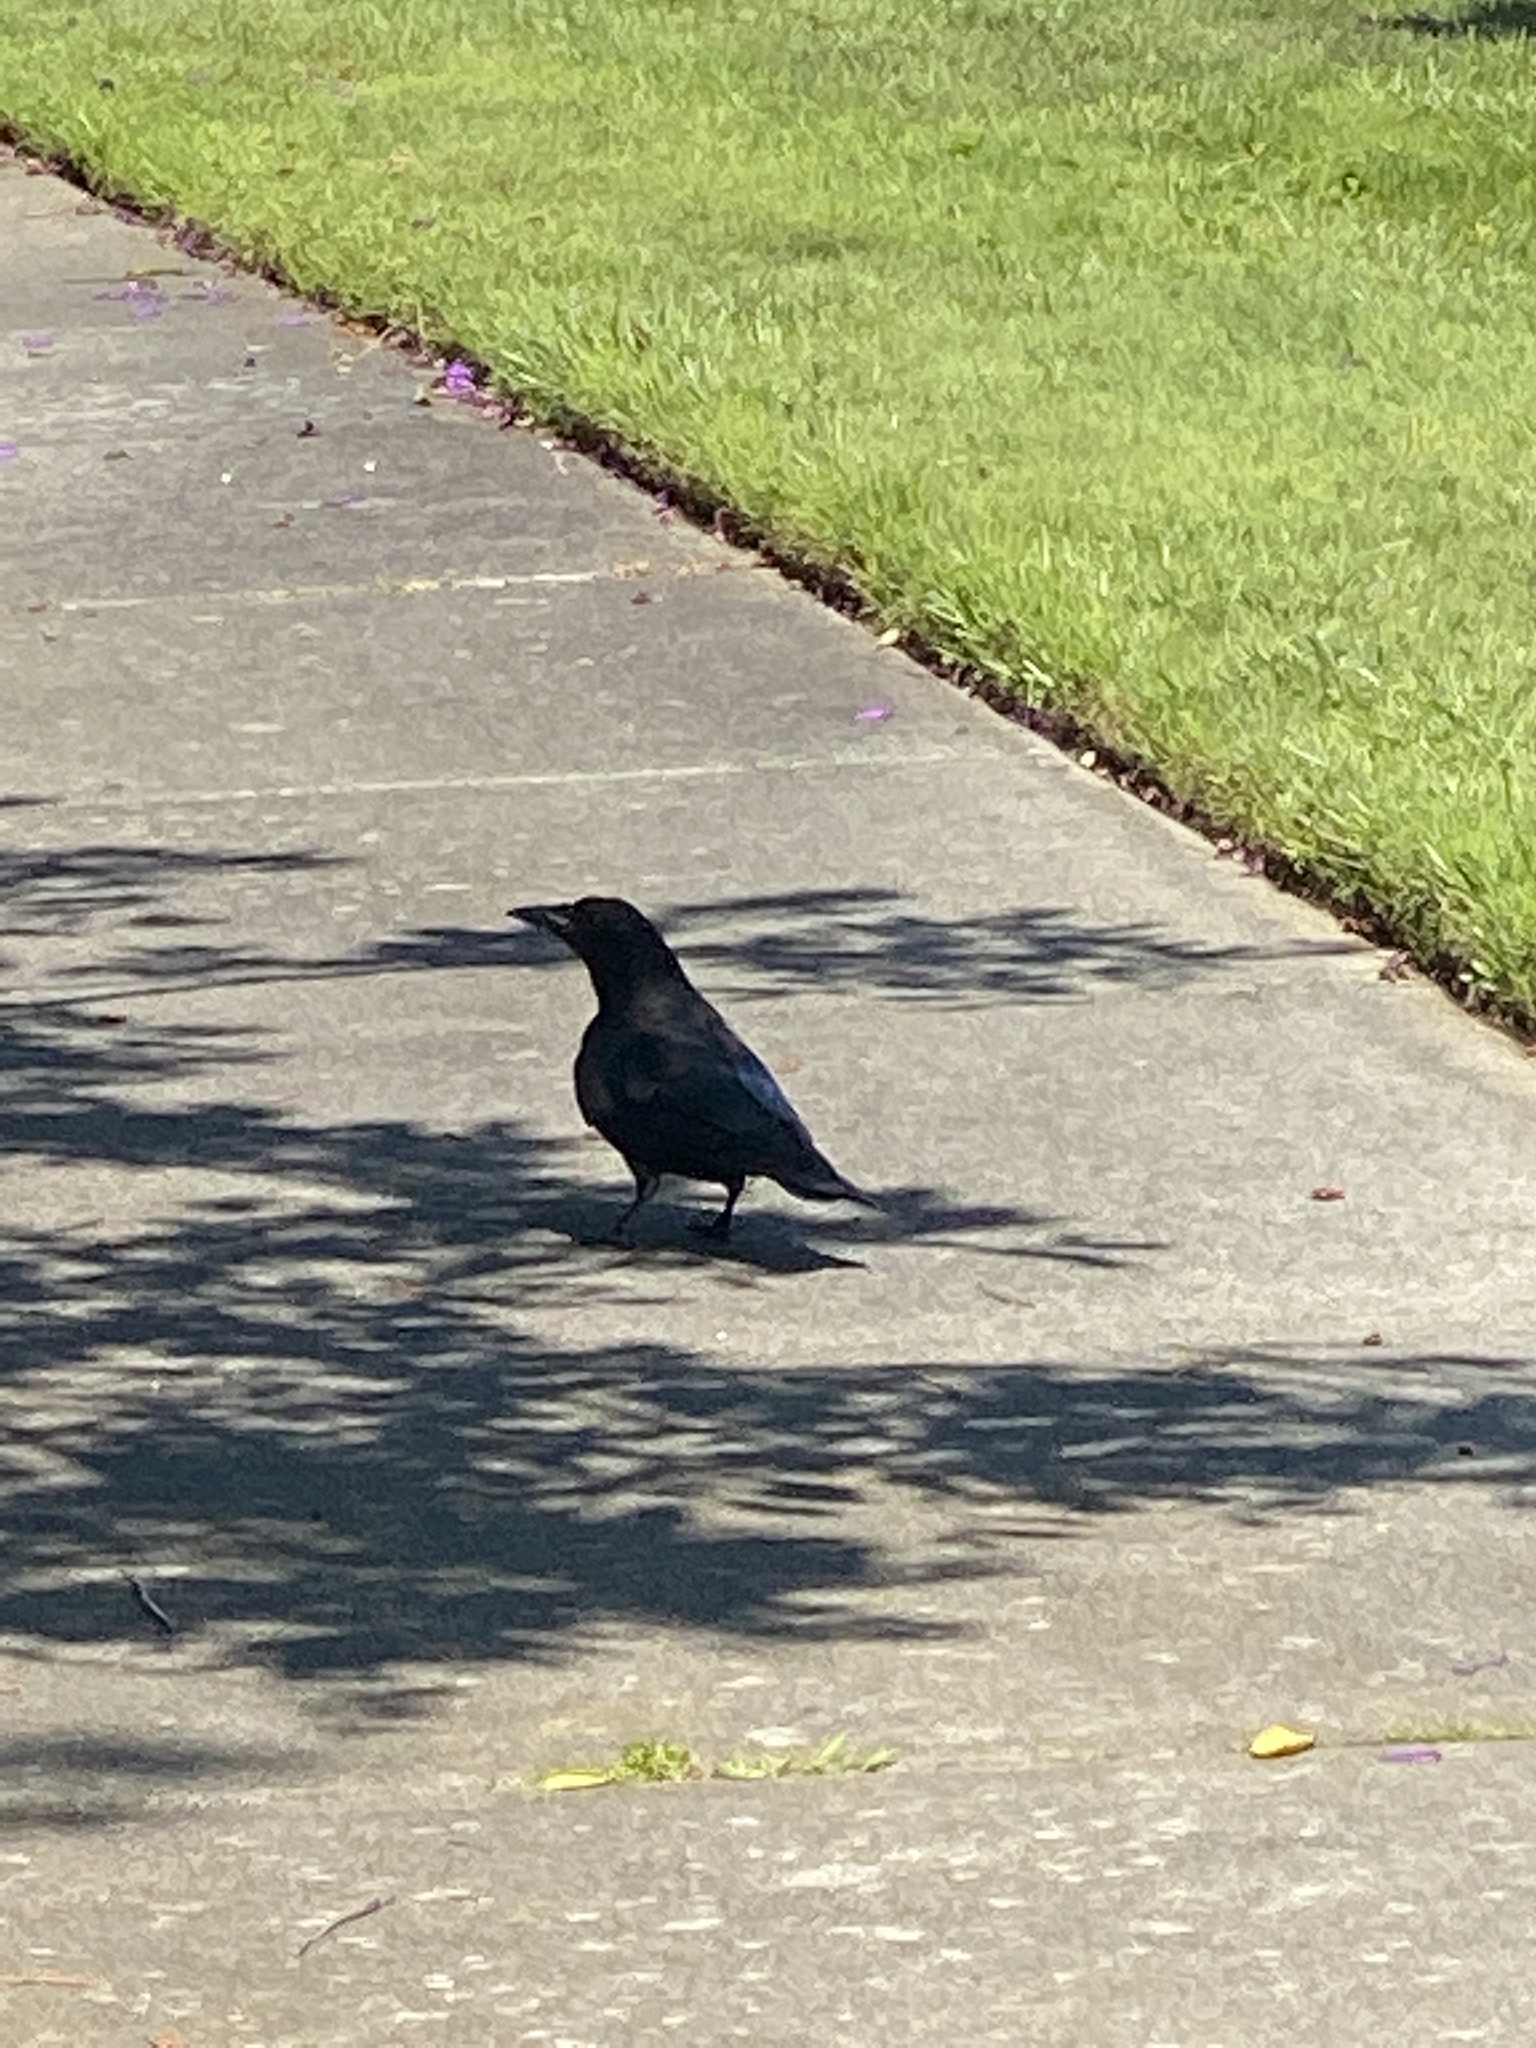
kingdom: Animalia
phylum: Chordata
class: Aves
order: Passeriformes
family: Corvidae
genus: Corvus
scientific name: Corvus brachyrhynchos
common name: American crow
